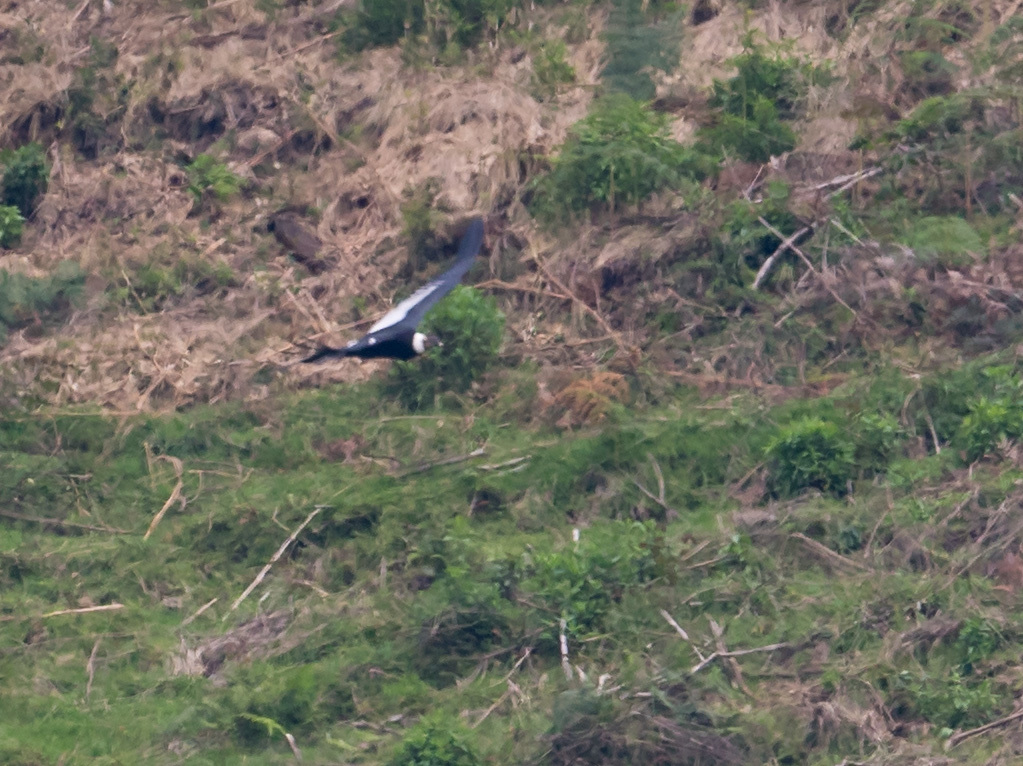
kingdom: Animalia
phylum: Chordata
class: Aves
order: Accipitriformes
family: Cathartidae
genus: Vultur
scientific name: Vultur gryphus
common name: Andean condor
